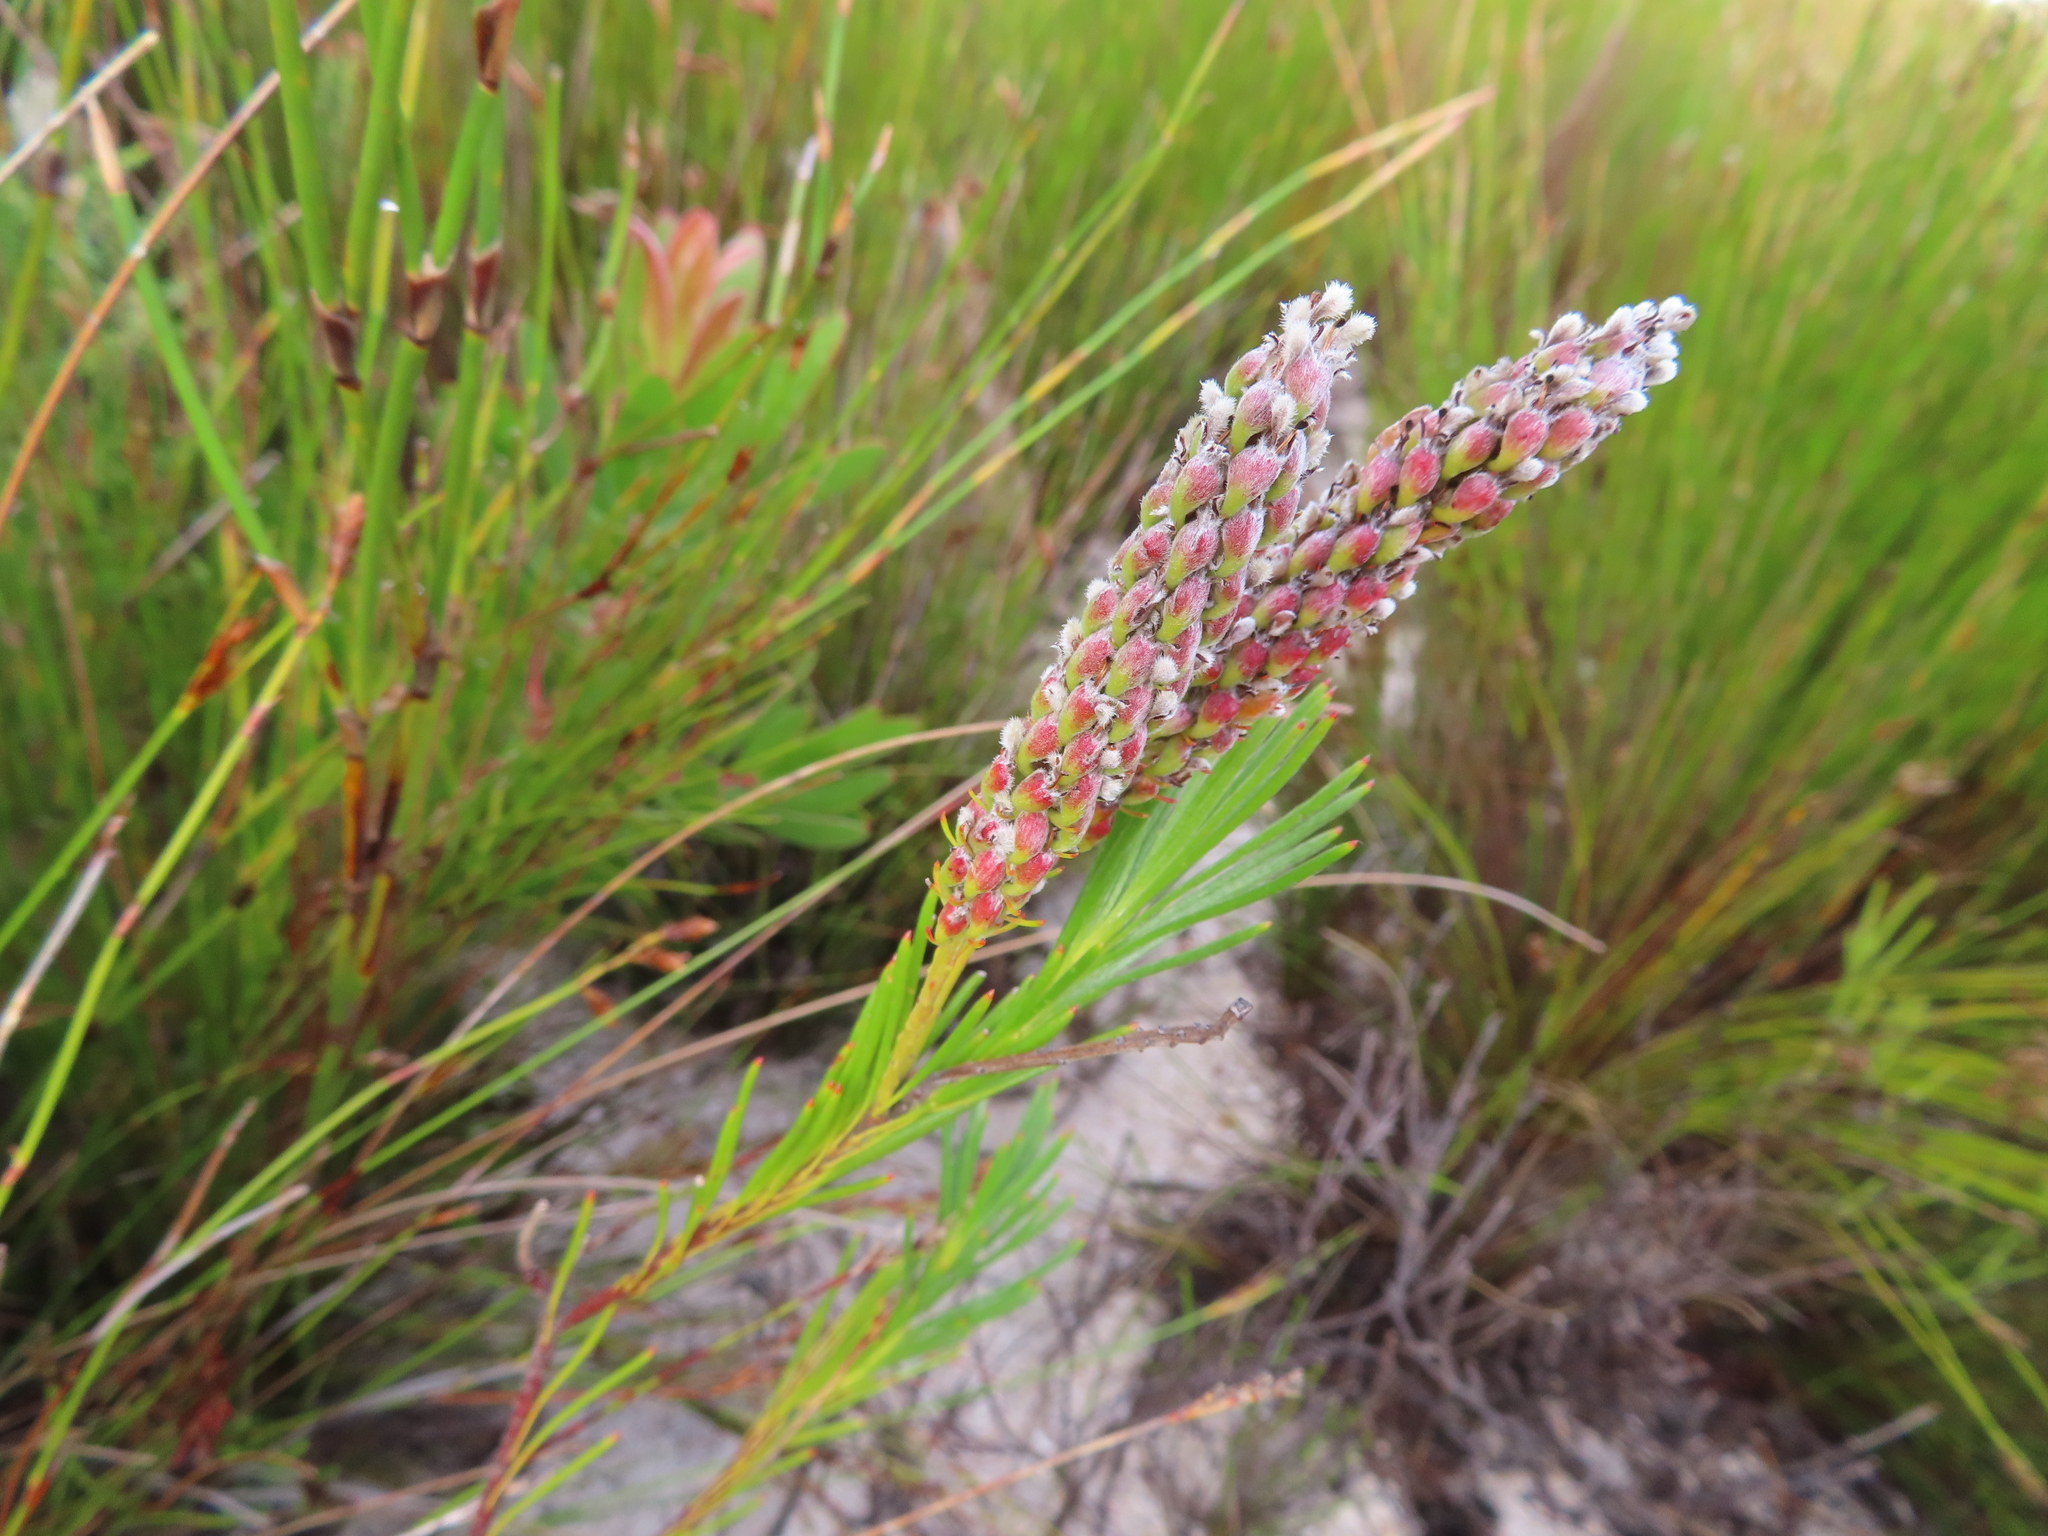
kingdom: Plantae
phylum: Tracheophyta
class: Magnoliopsida
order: Proteales
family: Proteaceae
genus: Spatalla
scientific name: Spatalla curvifolia
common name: White-stalked spoon
